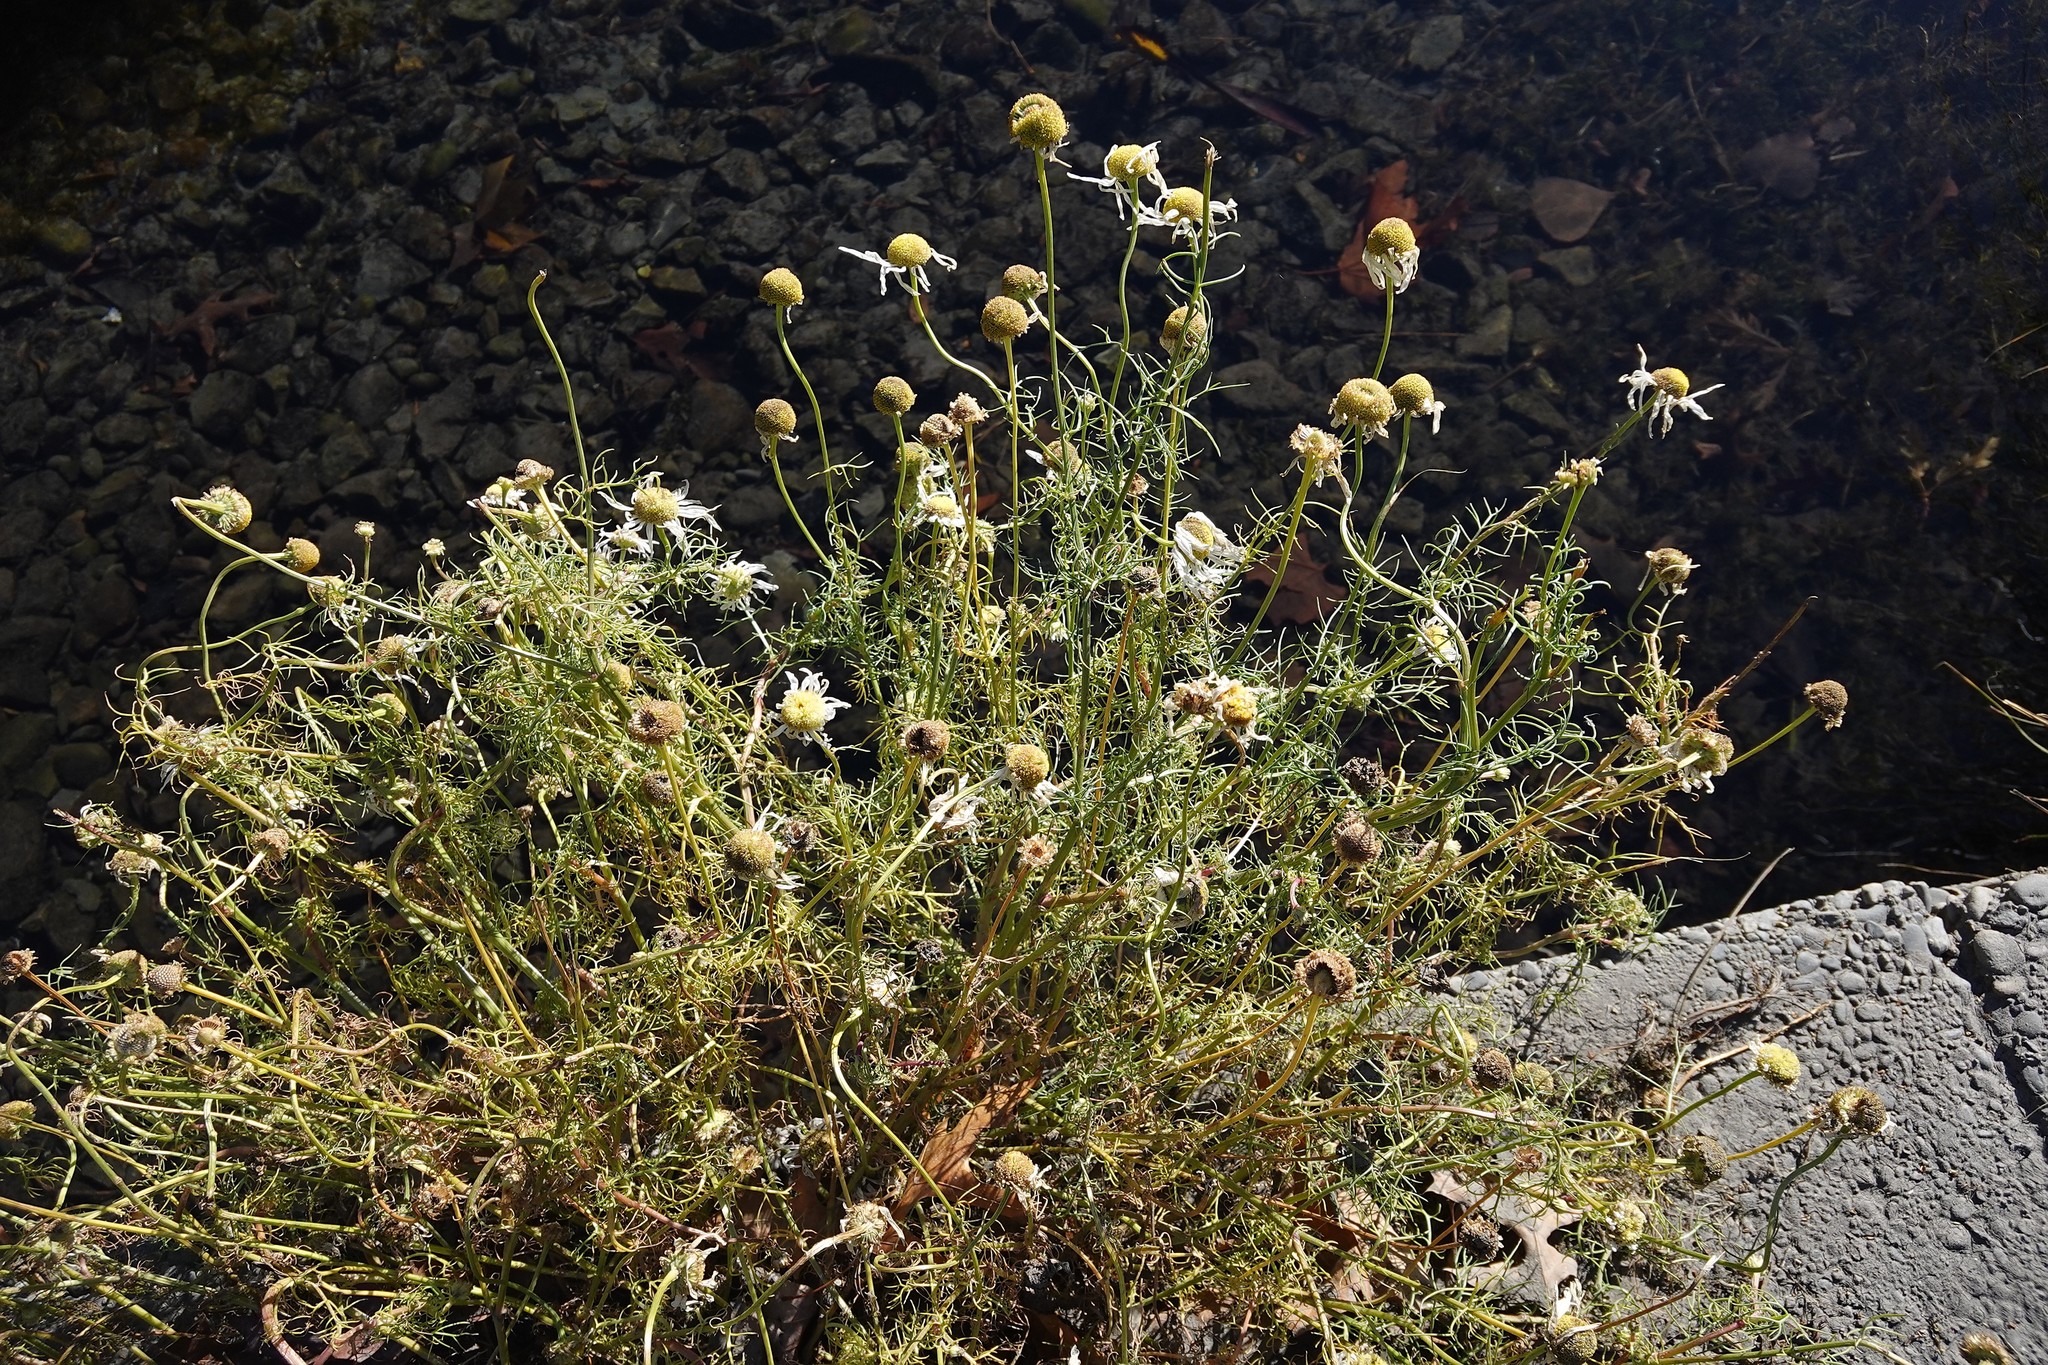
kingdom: Plantae
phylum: Tracheophyta
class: Magnoliopsida
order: Asterales
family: Asteraceae
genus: Tripleurospermum
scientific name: Tripleurospermum inodorum
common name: Scentless mayweed
